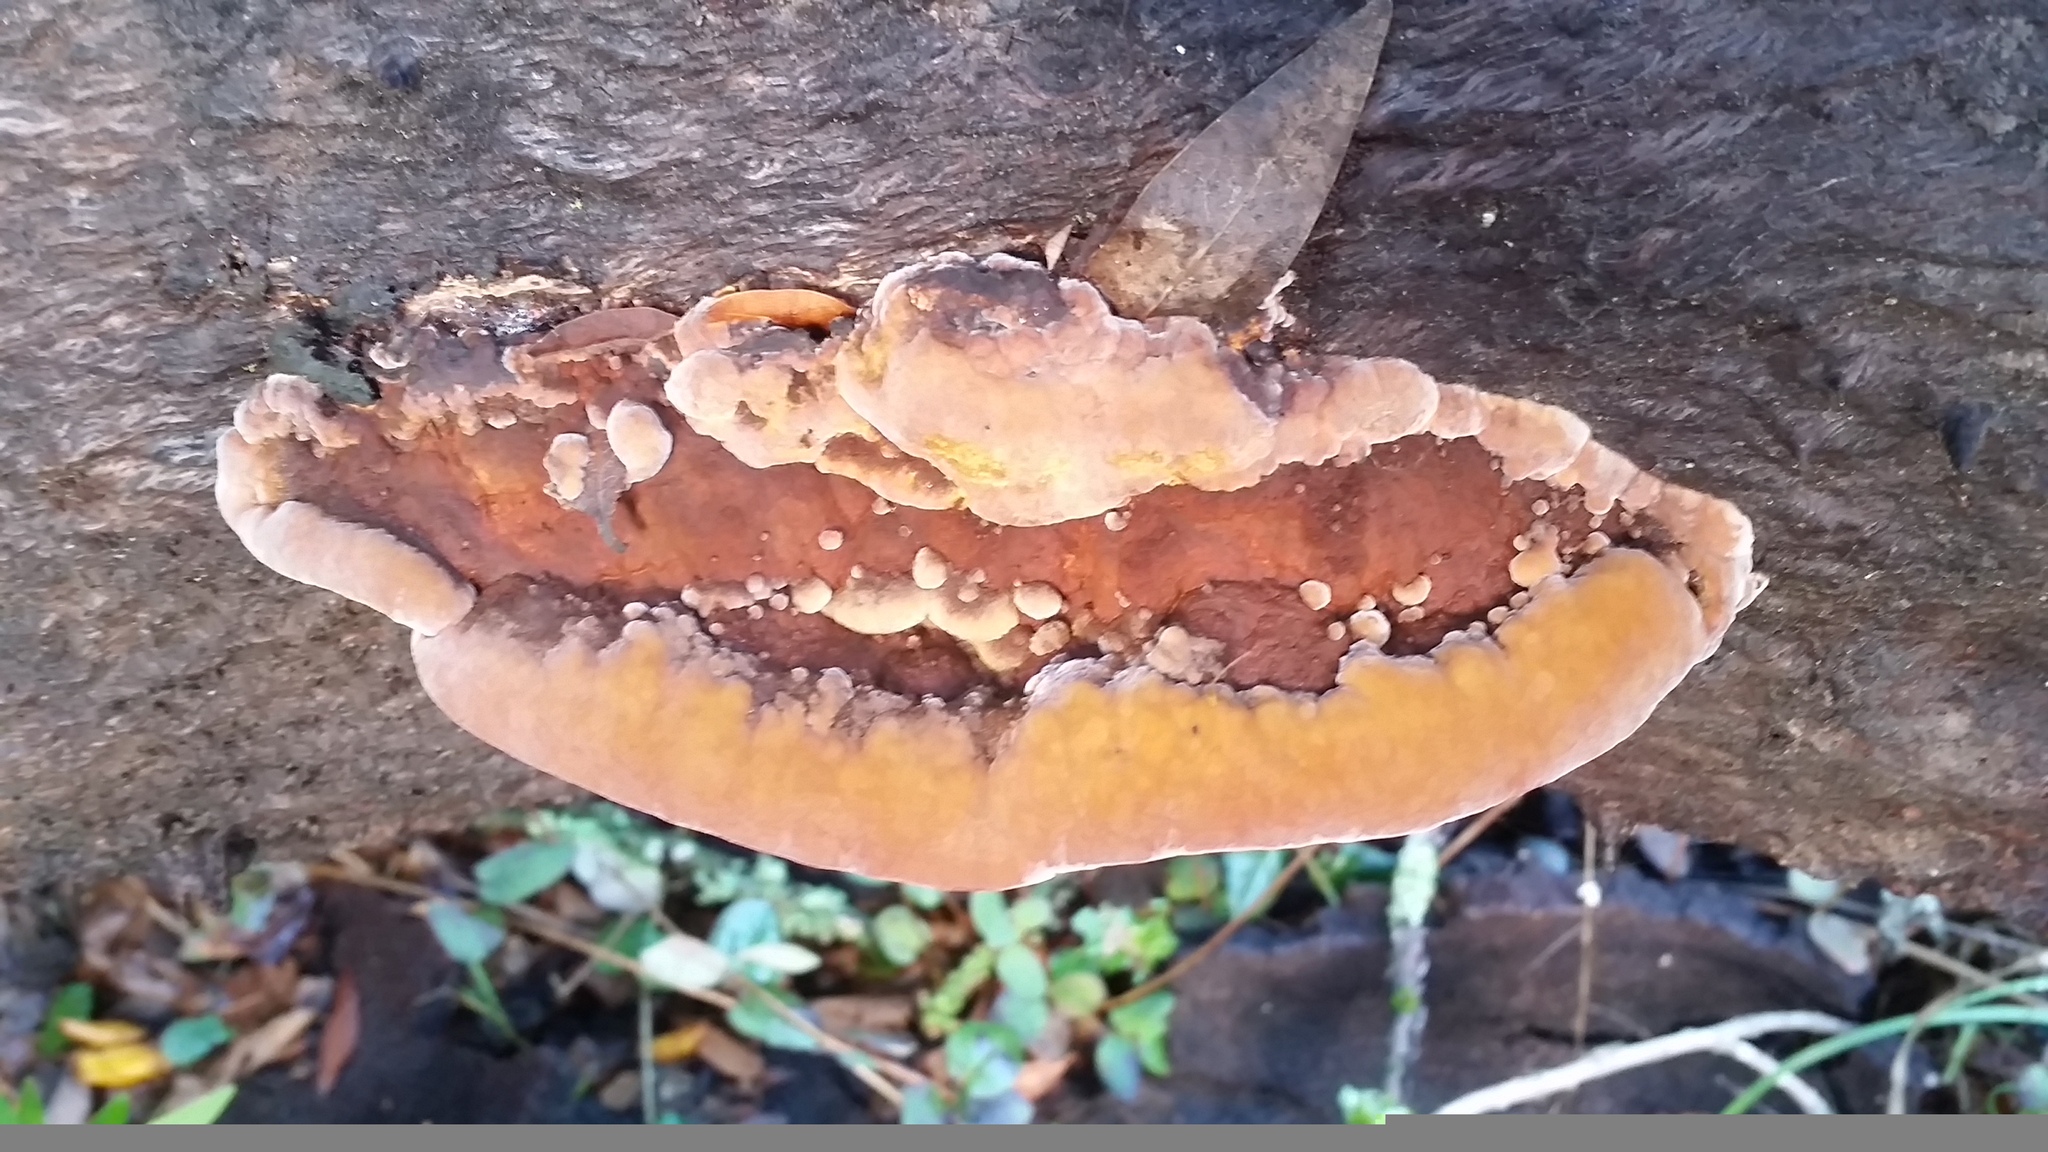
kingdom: Fungi
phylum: Basidiomycota
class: Agaricomycetes
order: Hymenochaetales
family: Hymenochaetaceae
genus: Phellinus
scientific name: Phellinus gilvus
